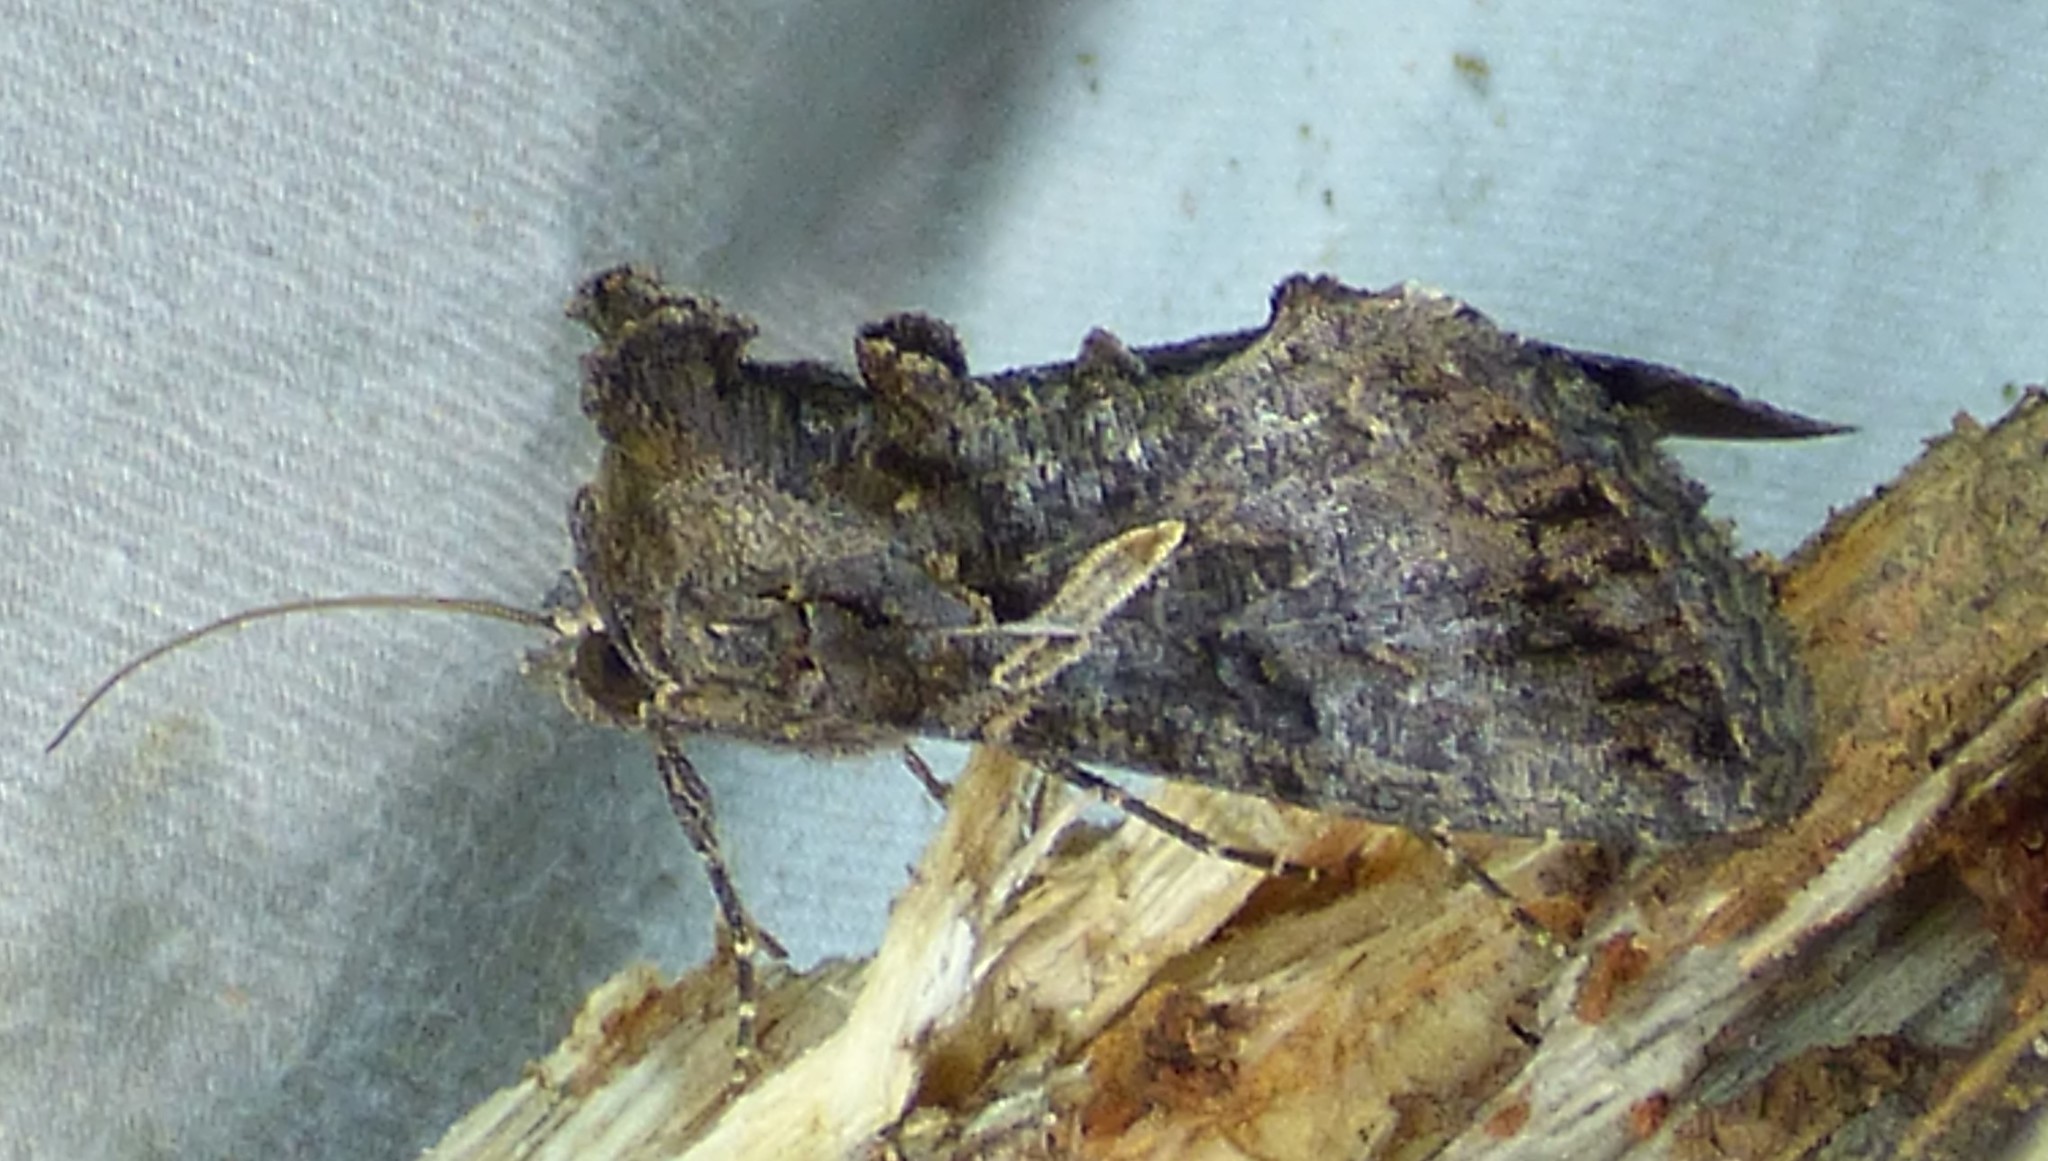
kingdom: Animalia
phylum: Arthropoda
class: Insecta
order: Lepidoptera
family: Noctuidae
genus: Ctenoplusia
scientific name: Ctenoplusia oxygramma
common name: Sharp-stigma looper moth
